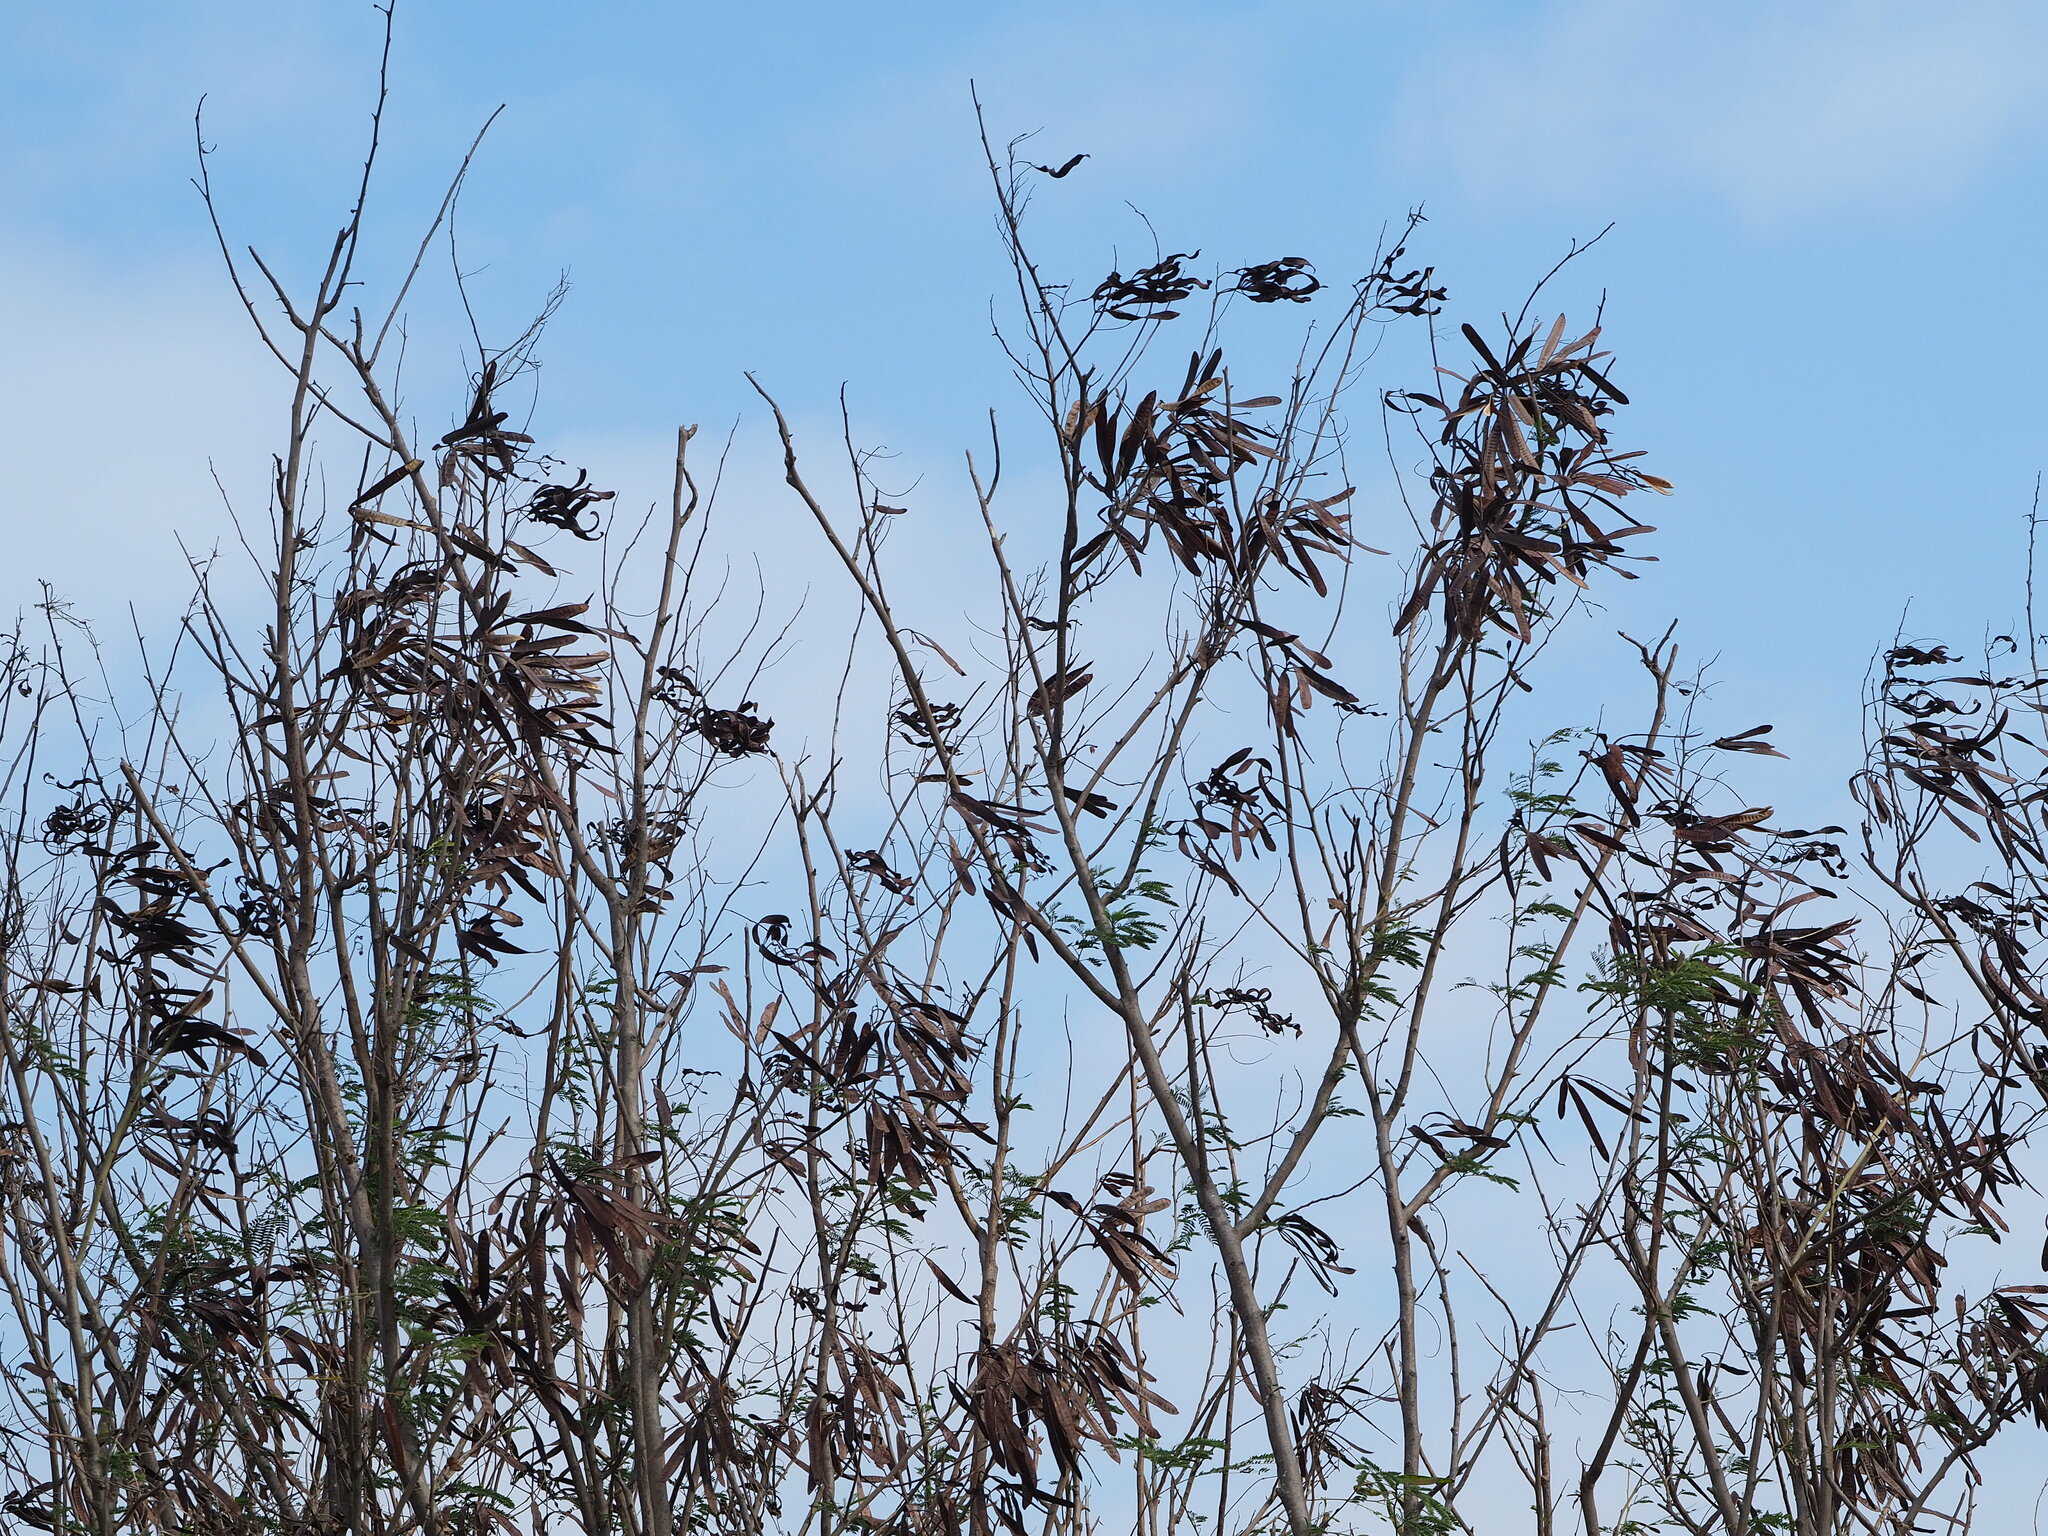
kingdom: Plantae
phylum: Tracheophyta
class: Magnoliopsida
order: Fabales
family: Fabaceae
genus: Leucaena
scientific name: Leucaena leucocephala
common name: White leadtree
